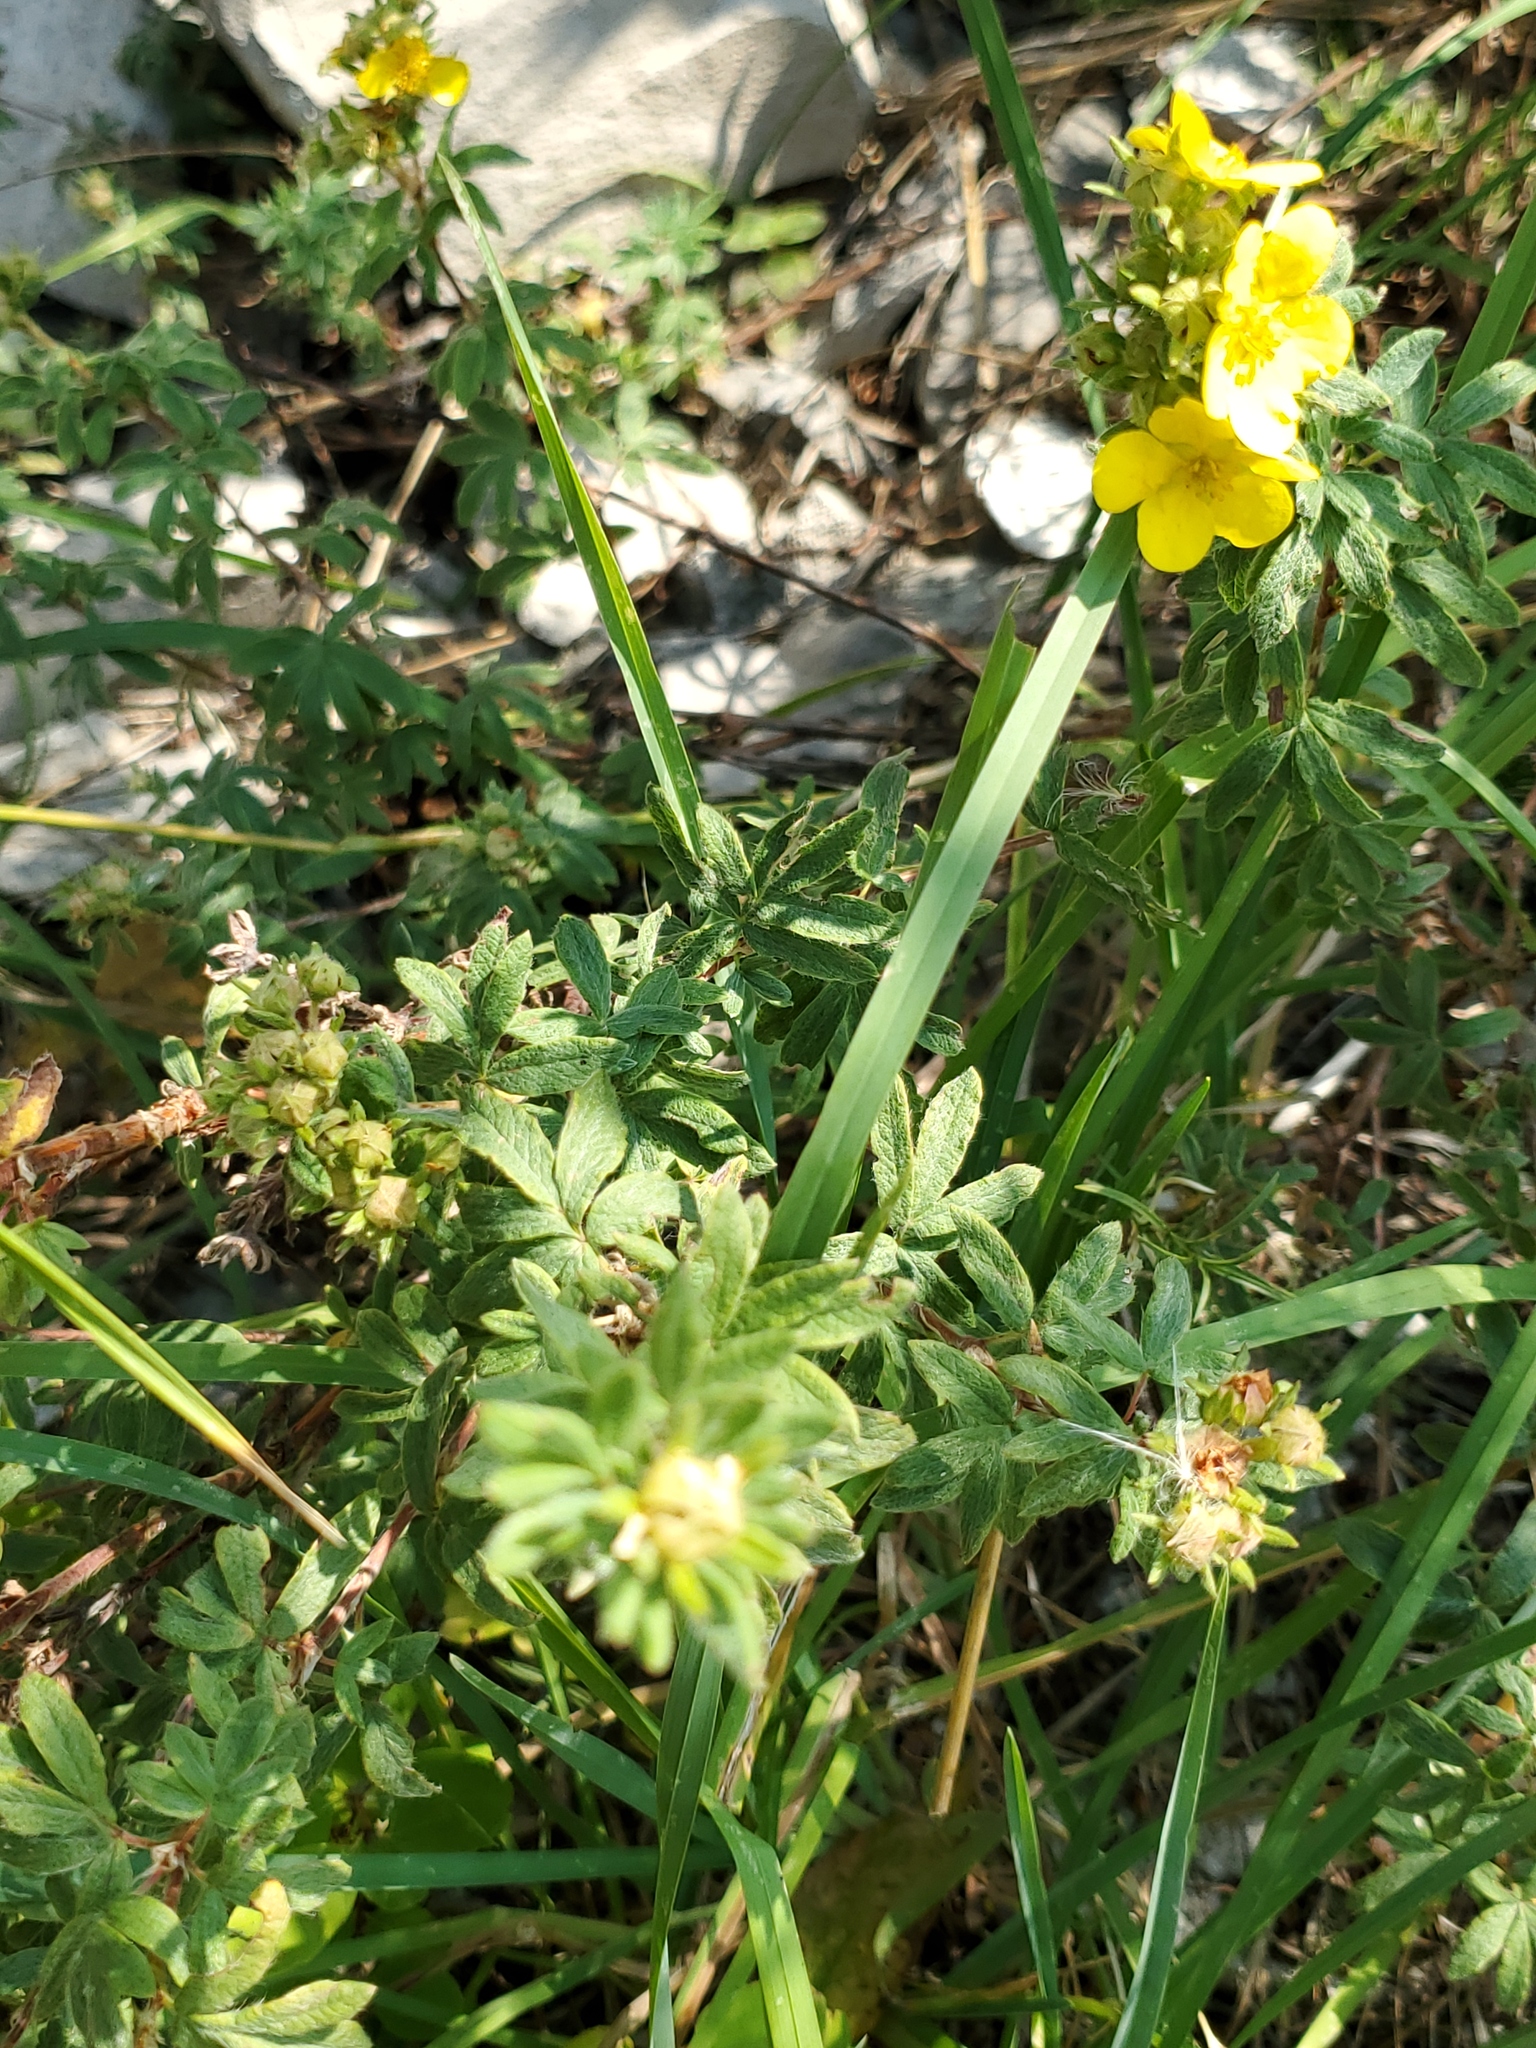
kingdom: Plantae
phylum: Tracheophyta
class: Magnoliopsida
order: Rosales
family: Rosaceae
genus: Dasiphora
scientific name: Dasiphora fruticosa
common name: Shrubby cinquefoil
